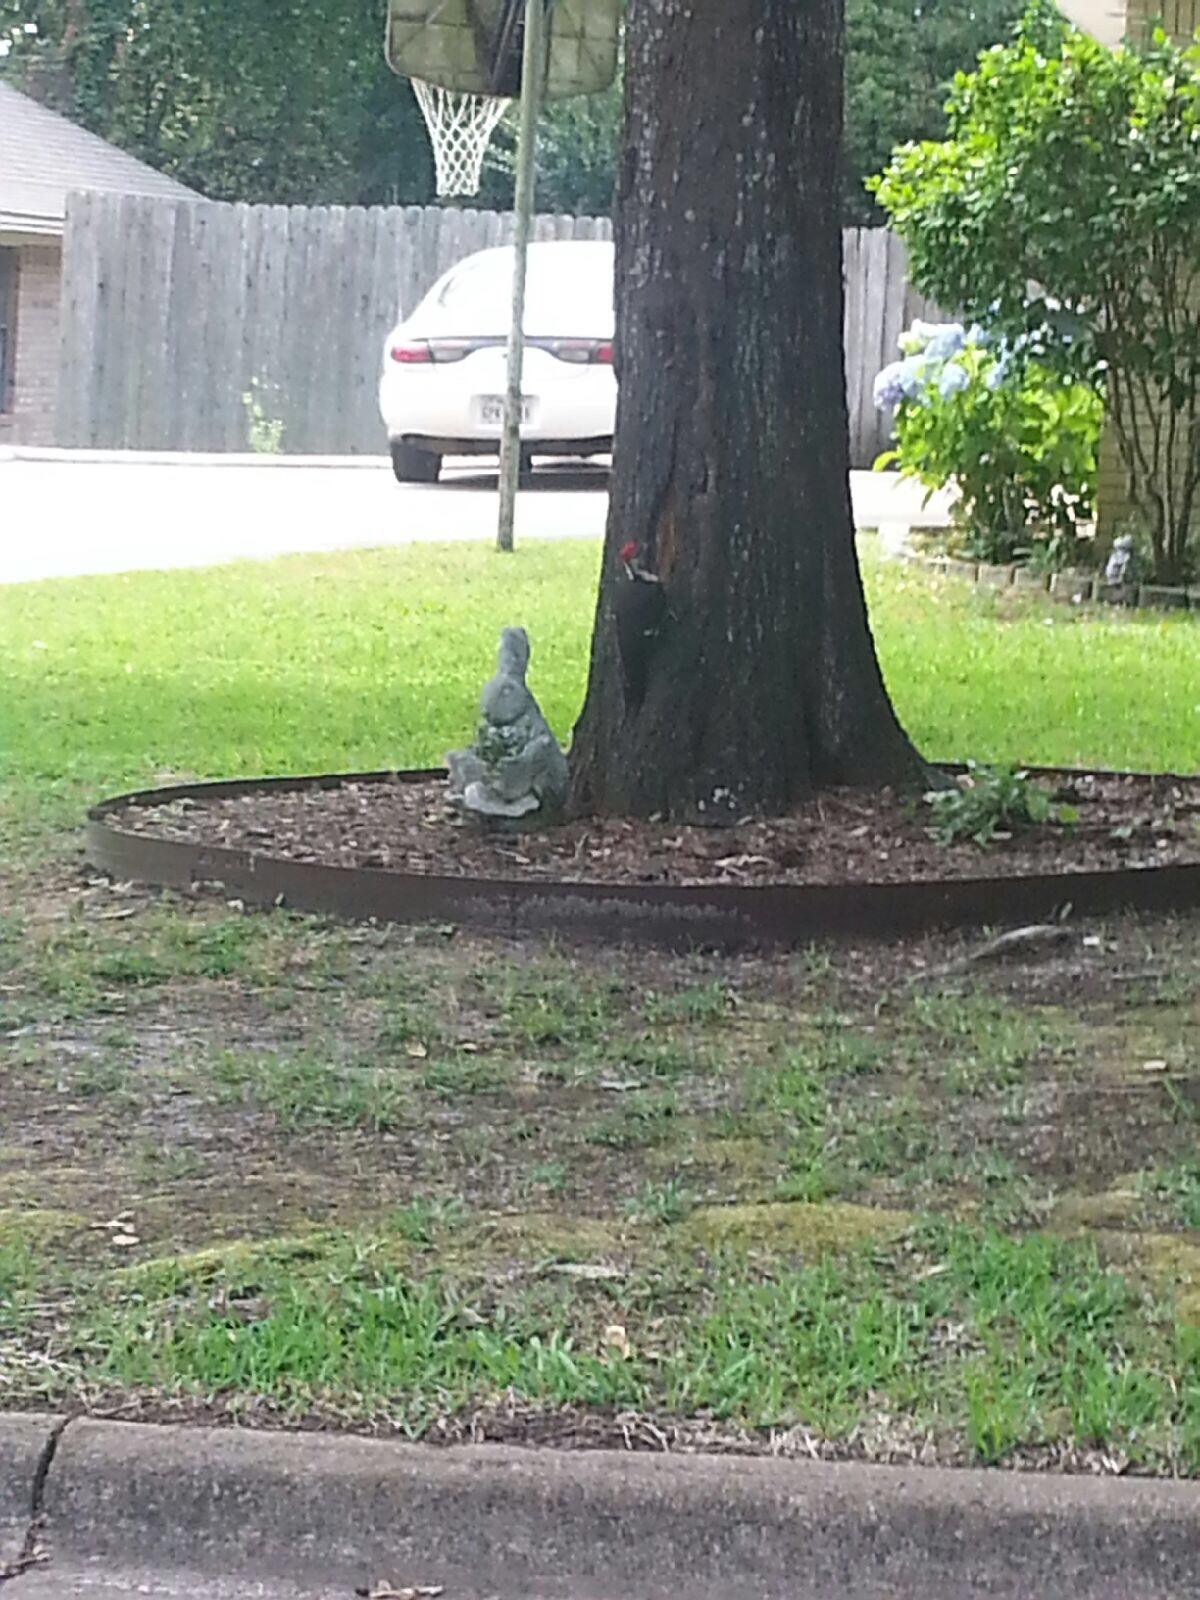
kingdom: Animalia
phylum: Chordata
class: Aves
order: Piciformes
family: Picidae
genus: Dryocopus
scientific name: Dryocopus pileatus
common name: Pileated woodpecker
